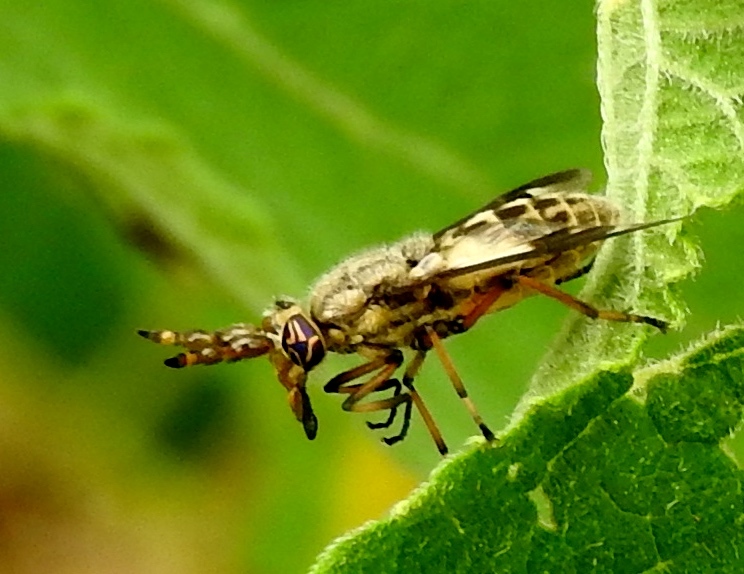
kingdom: Animalia
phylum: Arthropoda
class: Insecta
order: Diptera
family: Tabanidae
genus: Chrysops
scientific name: Chrysops
